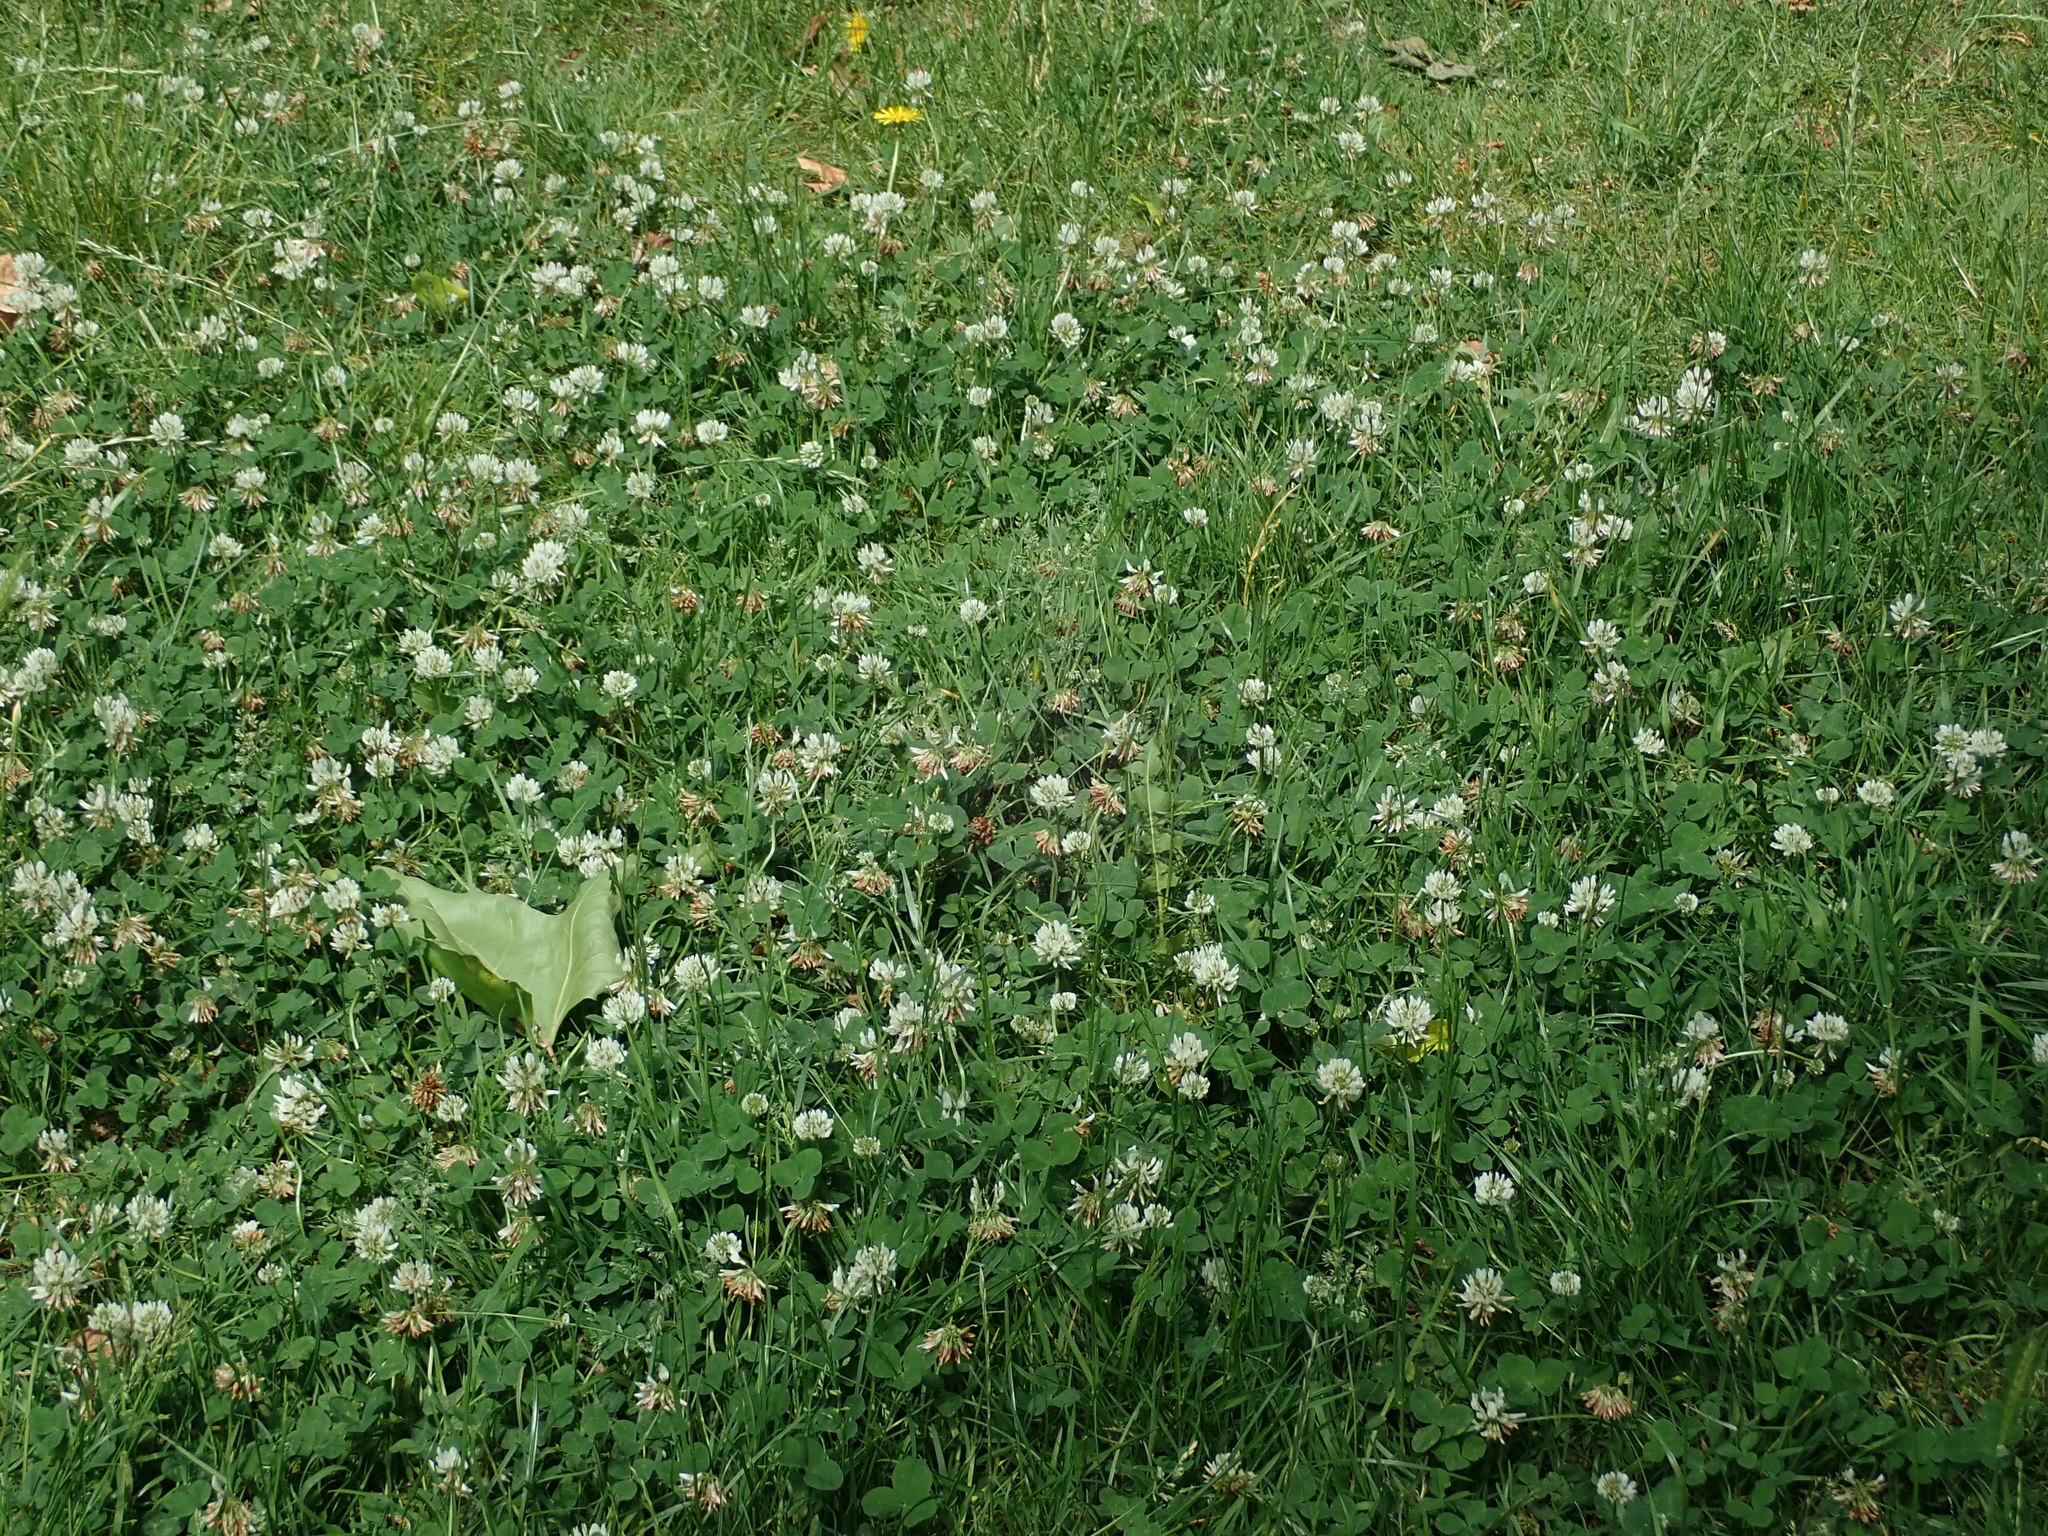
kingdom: Plantae
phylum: Tracheophyta
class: Magnoliopsida
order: Fabales
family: Fabaceae
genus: Trifolium
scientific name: Trifolium repens
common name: White clover
